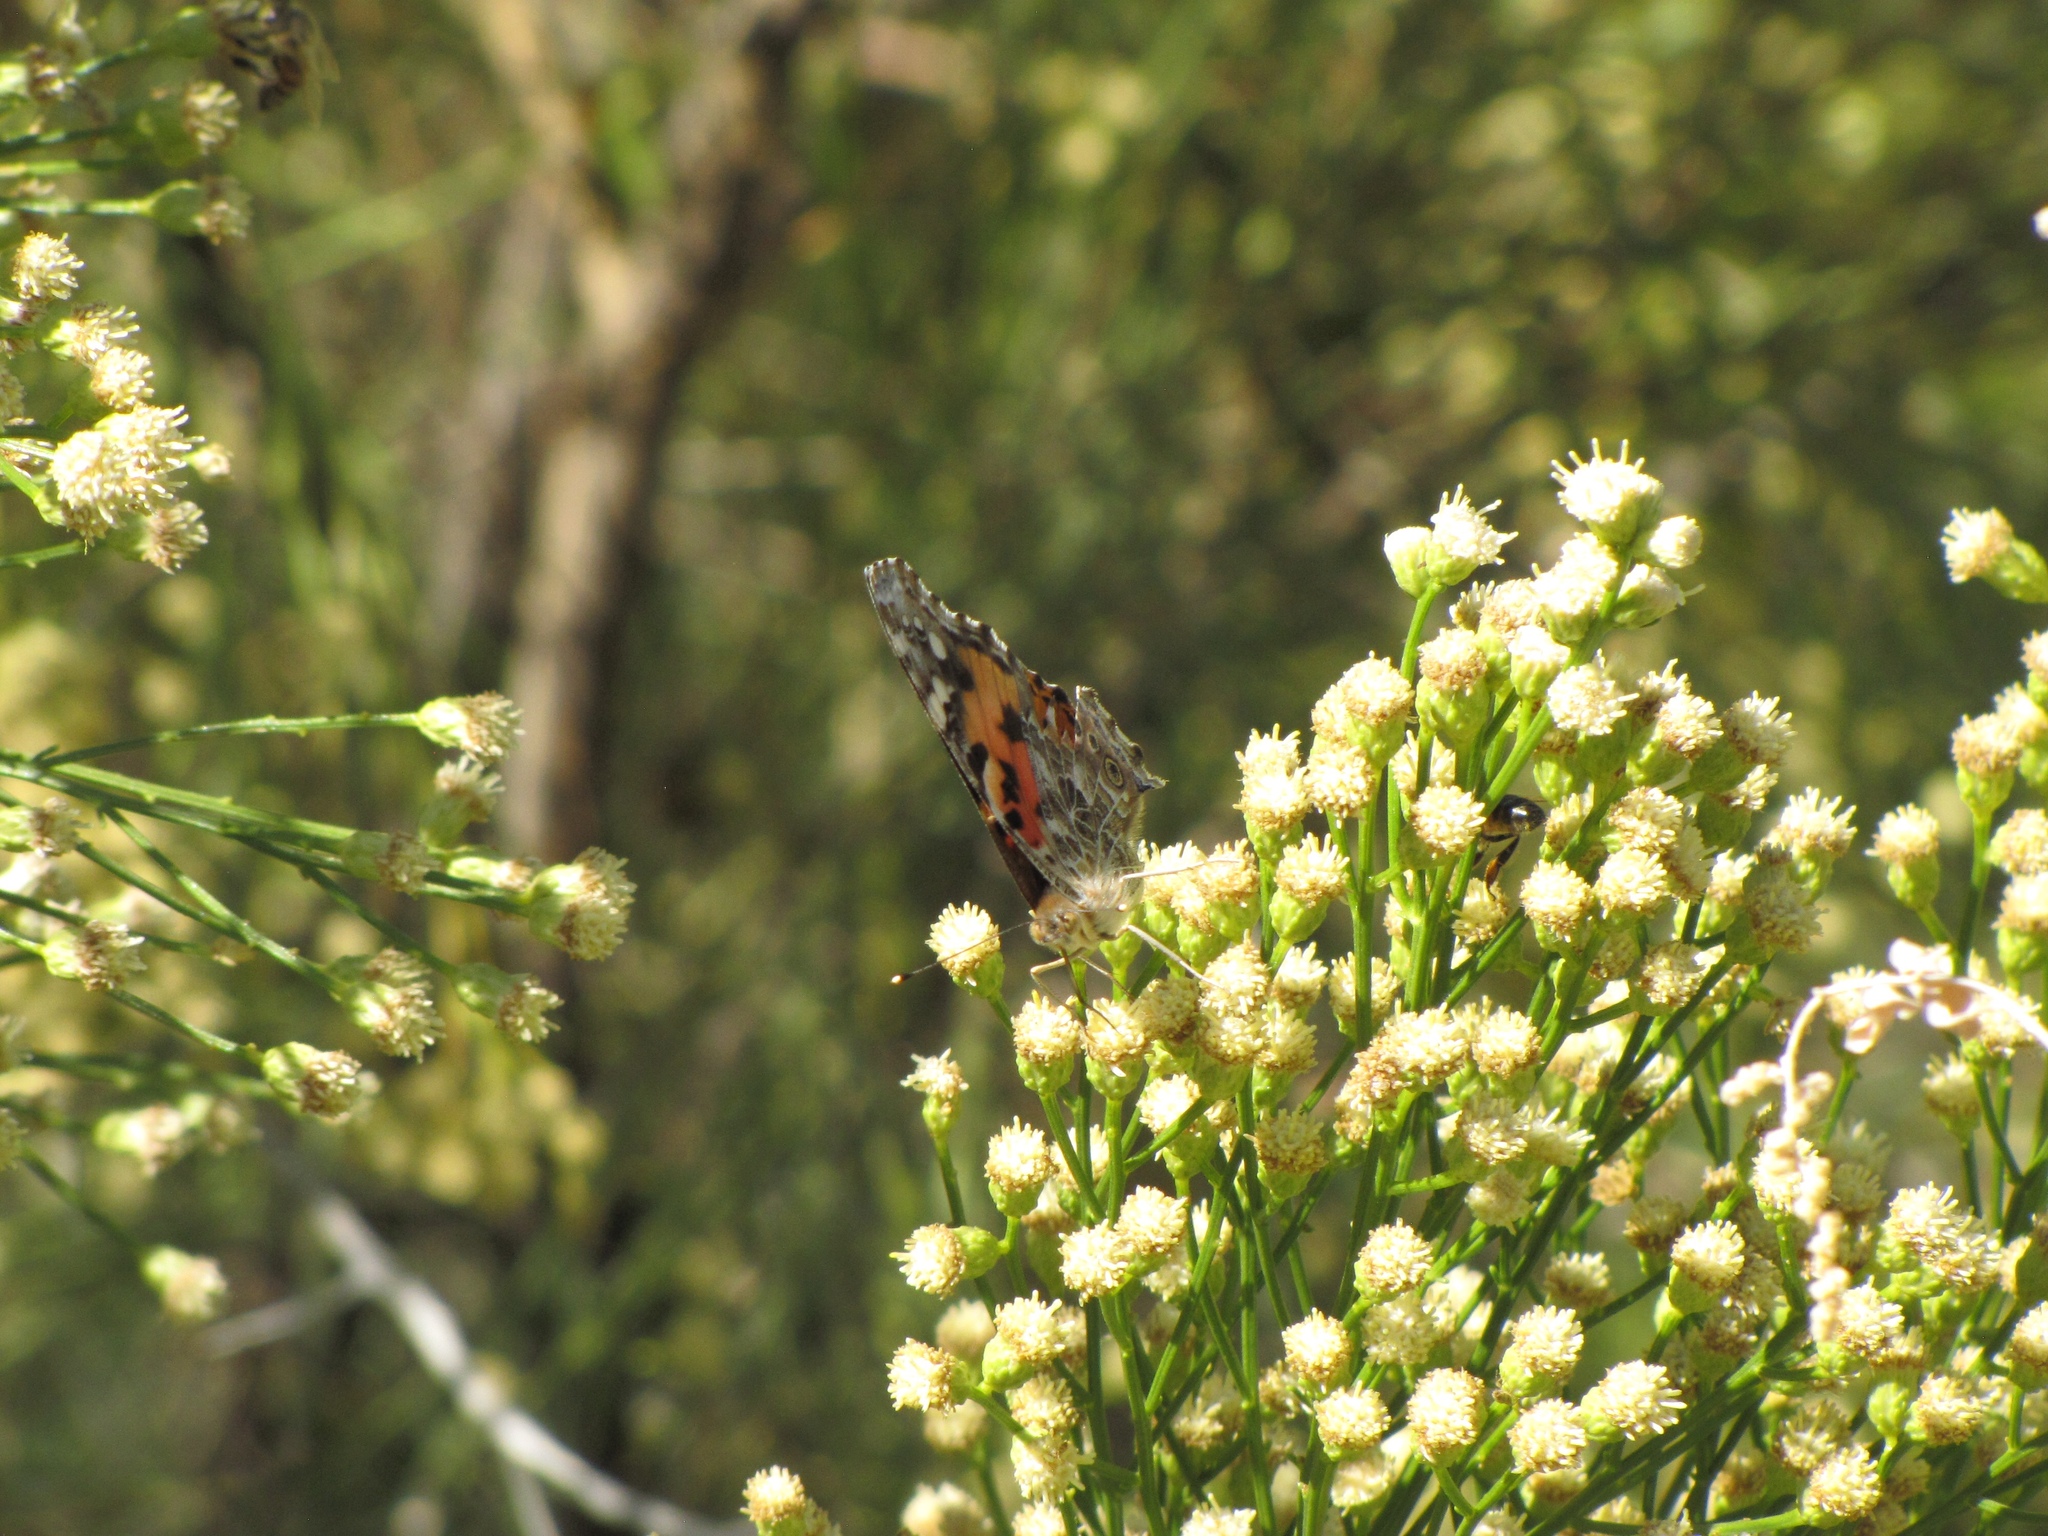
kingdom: Animalia
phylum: Arthropoda
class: Insecta
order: Lepidoptera
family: Nymphalidae
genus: Vanessa
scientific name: Vanessa cardui
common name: Painted lady
